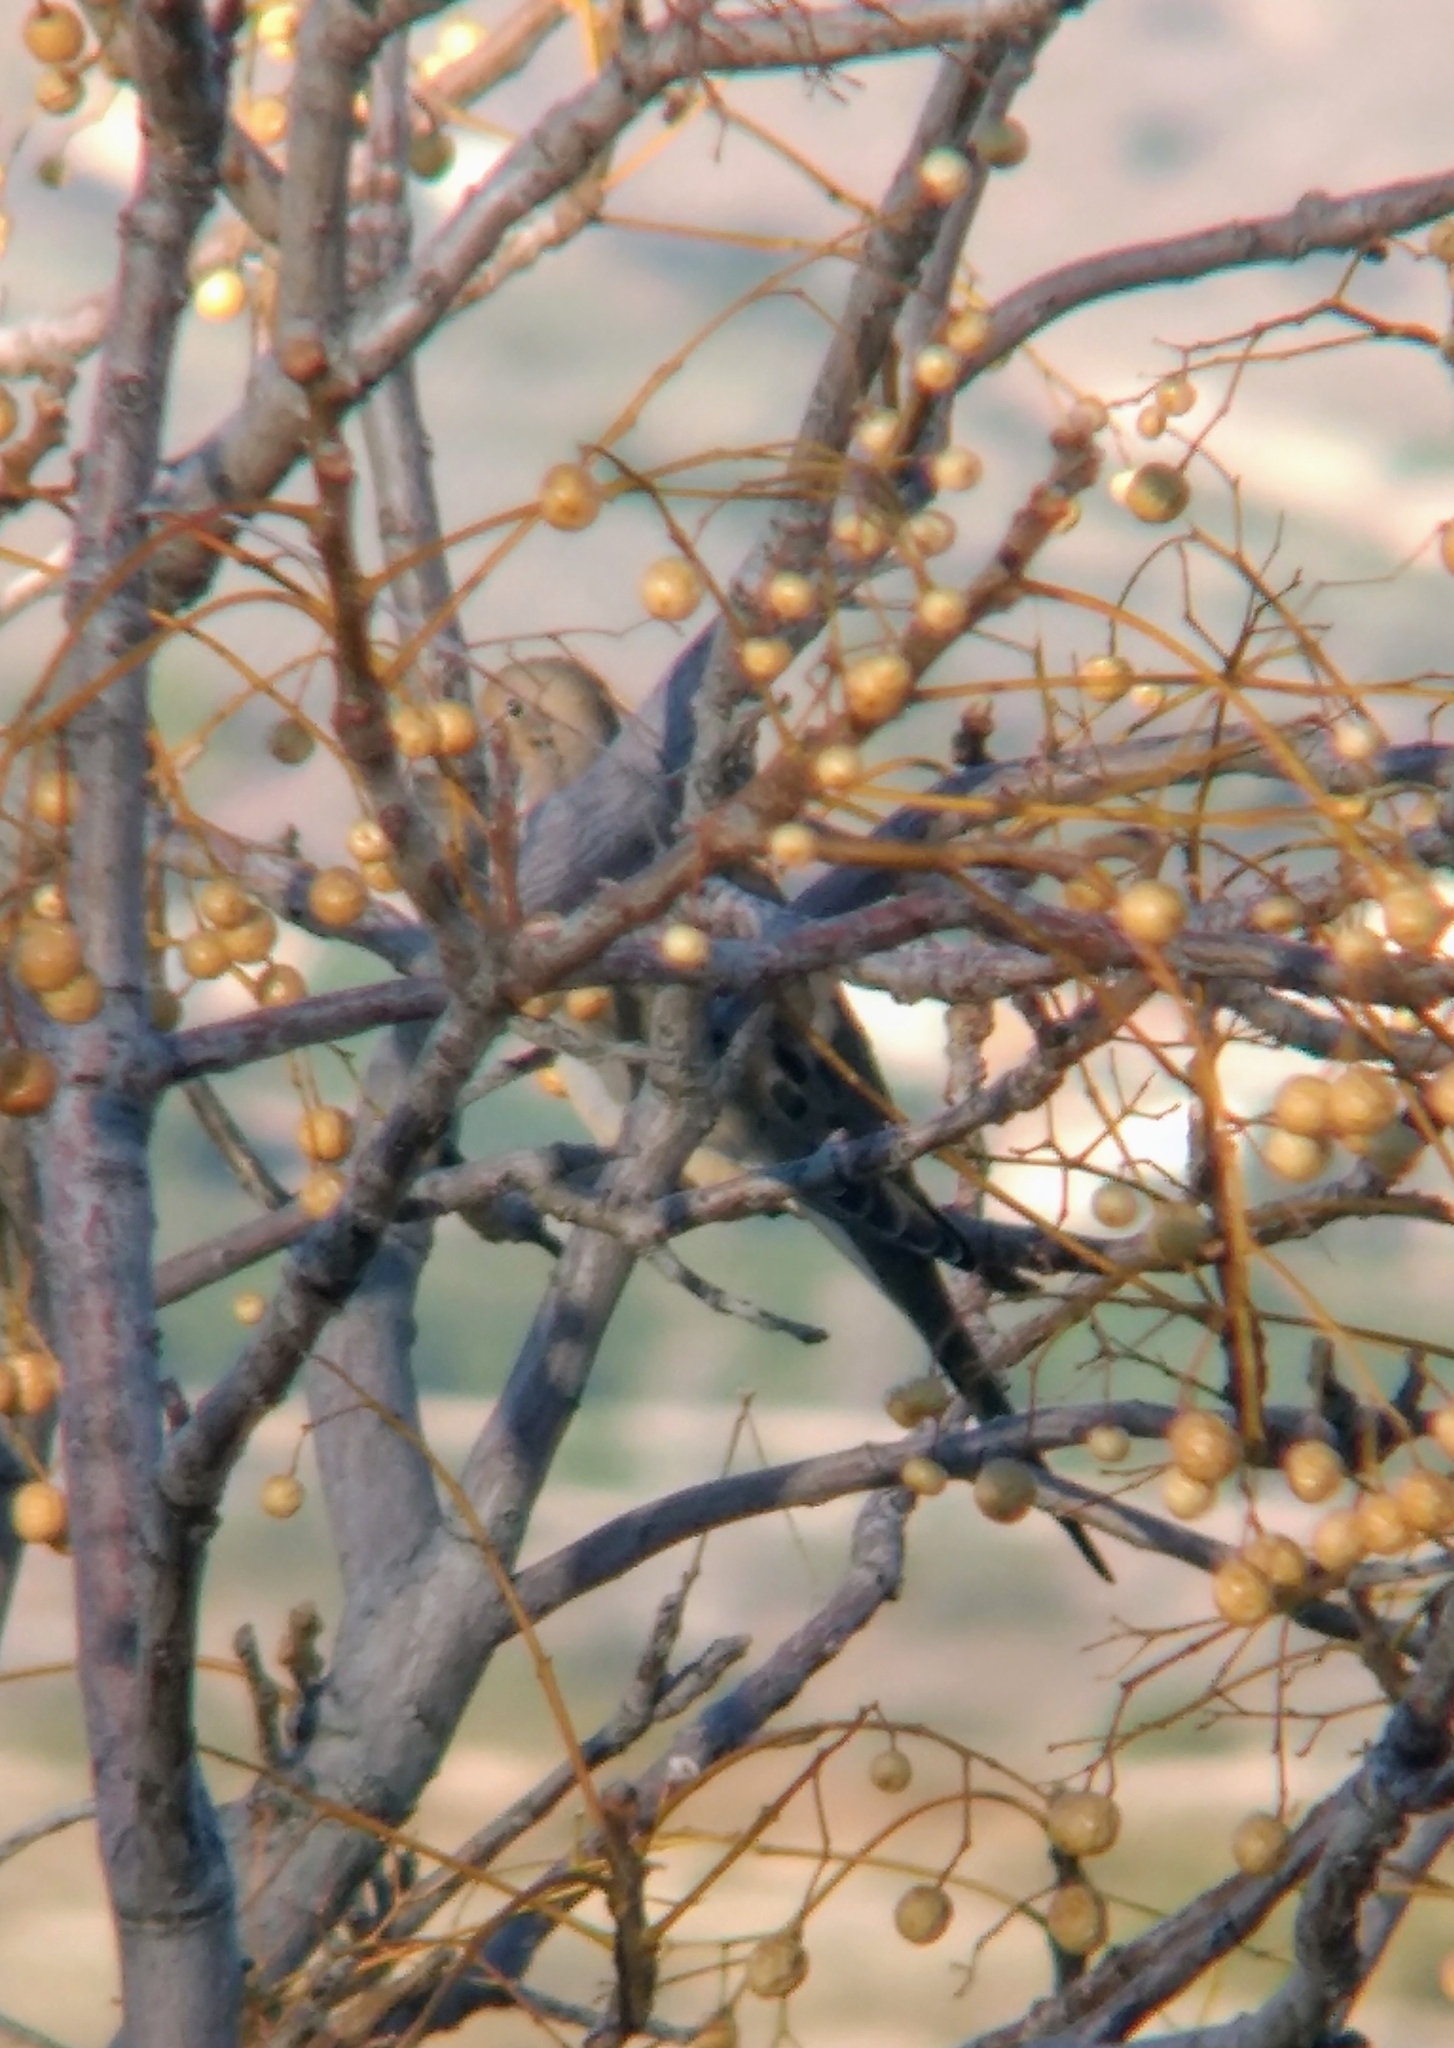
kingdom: Animalia
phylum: Chordata
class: Aves
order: Columbiformes
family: Columbidae
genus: Zenaida
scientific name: Zenaida macroura
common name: Mourning dove
